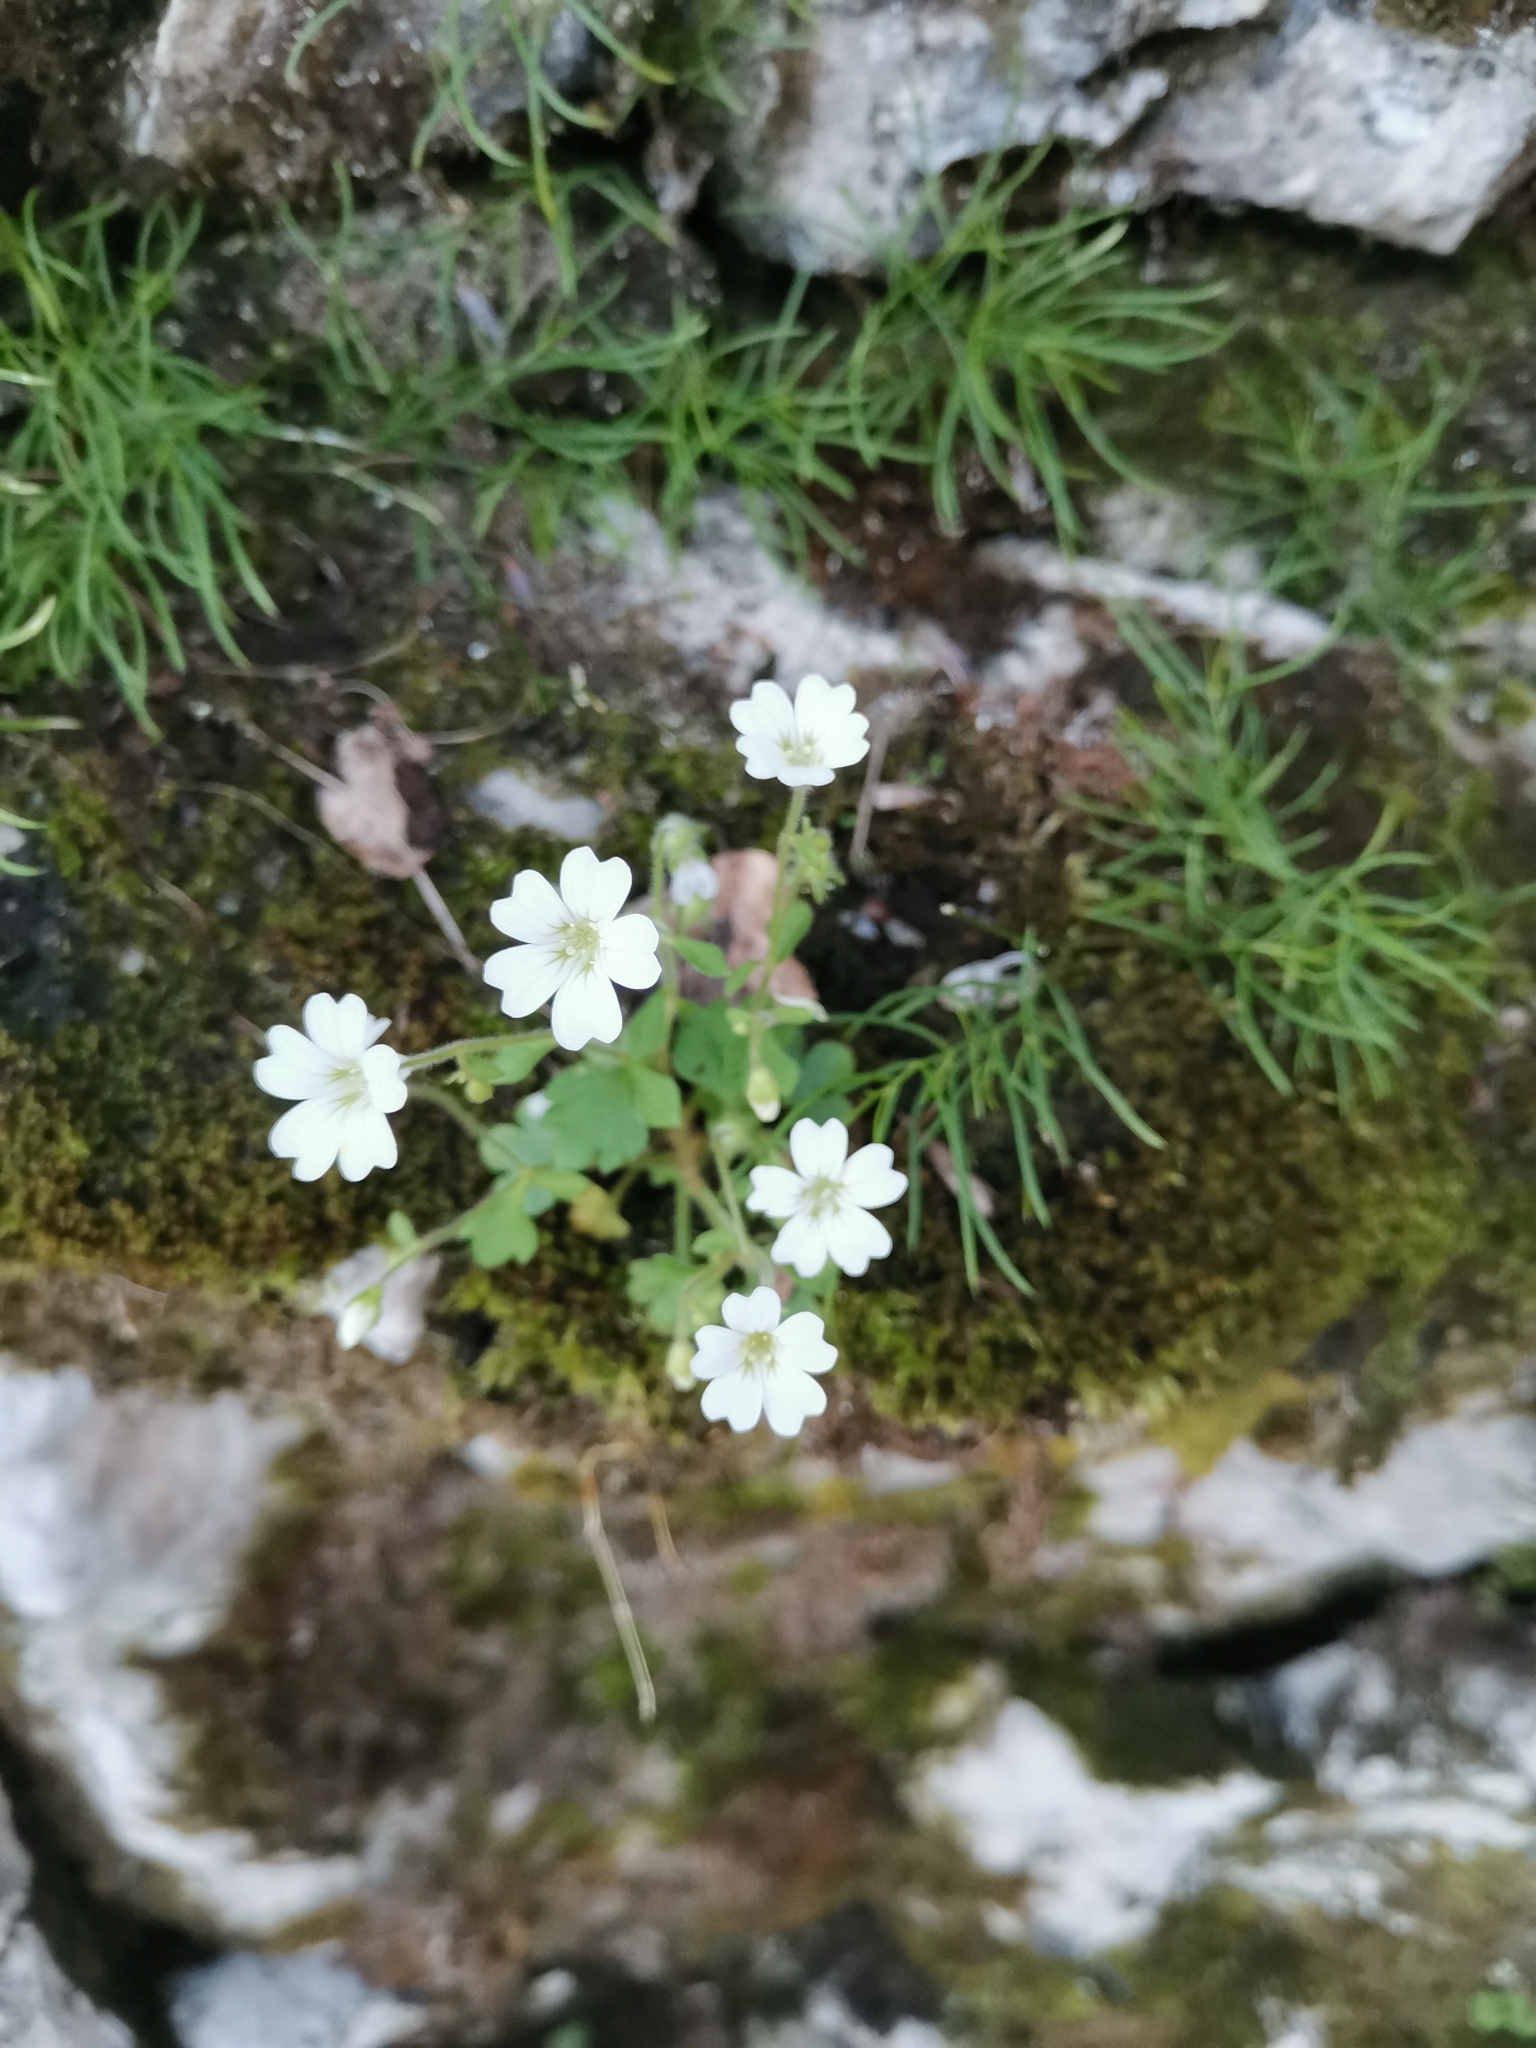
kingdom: Plantae
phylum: Tracheophyta
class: Magnoliopsida
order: Saxifragales
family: Saxifragaceae
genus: Saxifraga
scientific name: Saxifraga petraea
